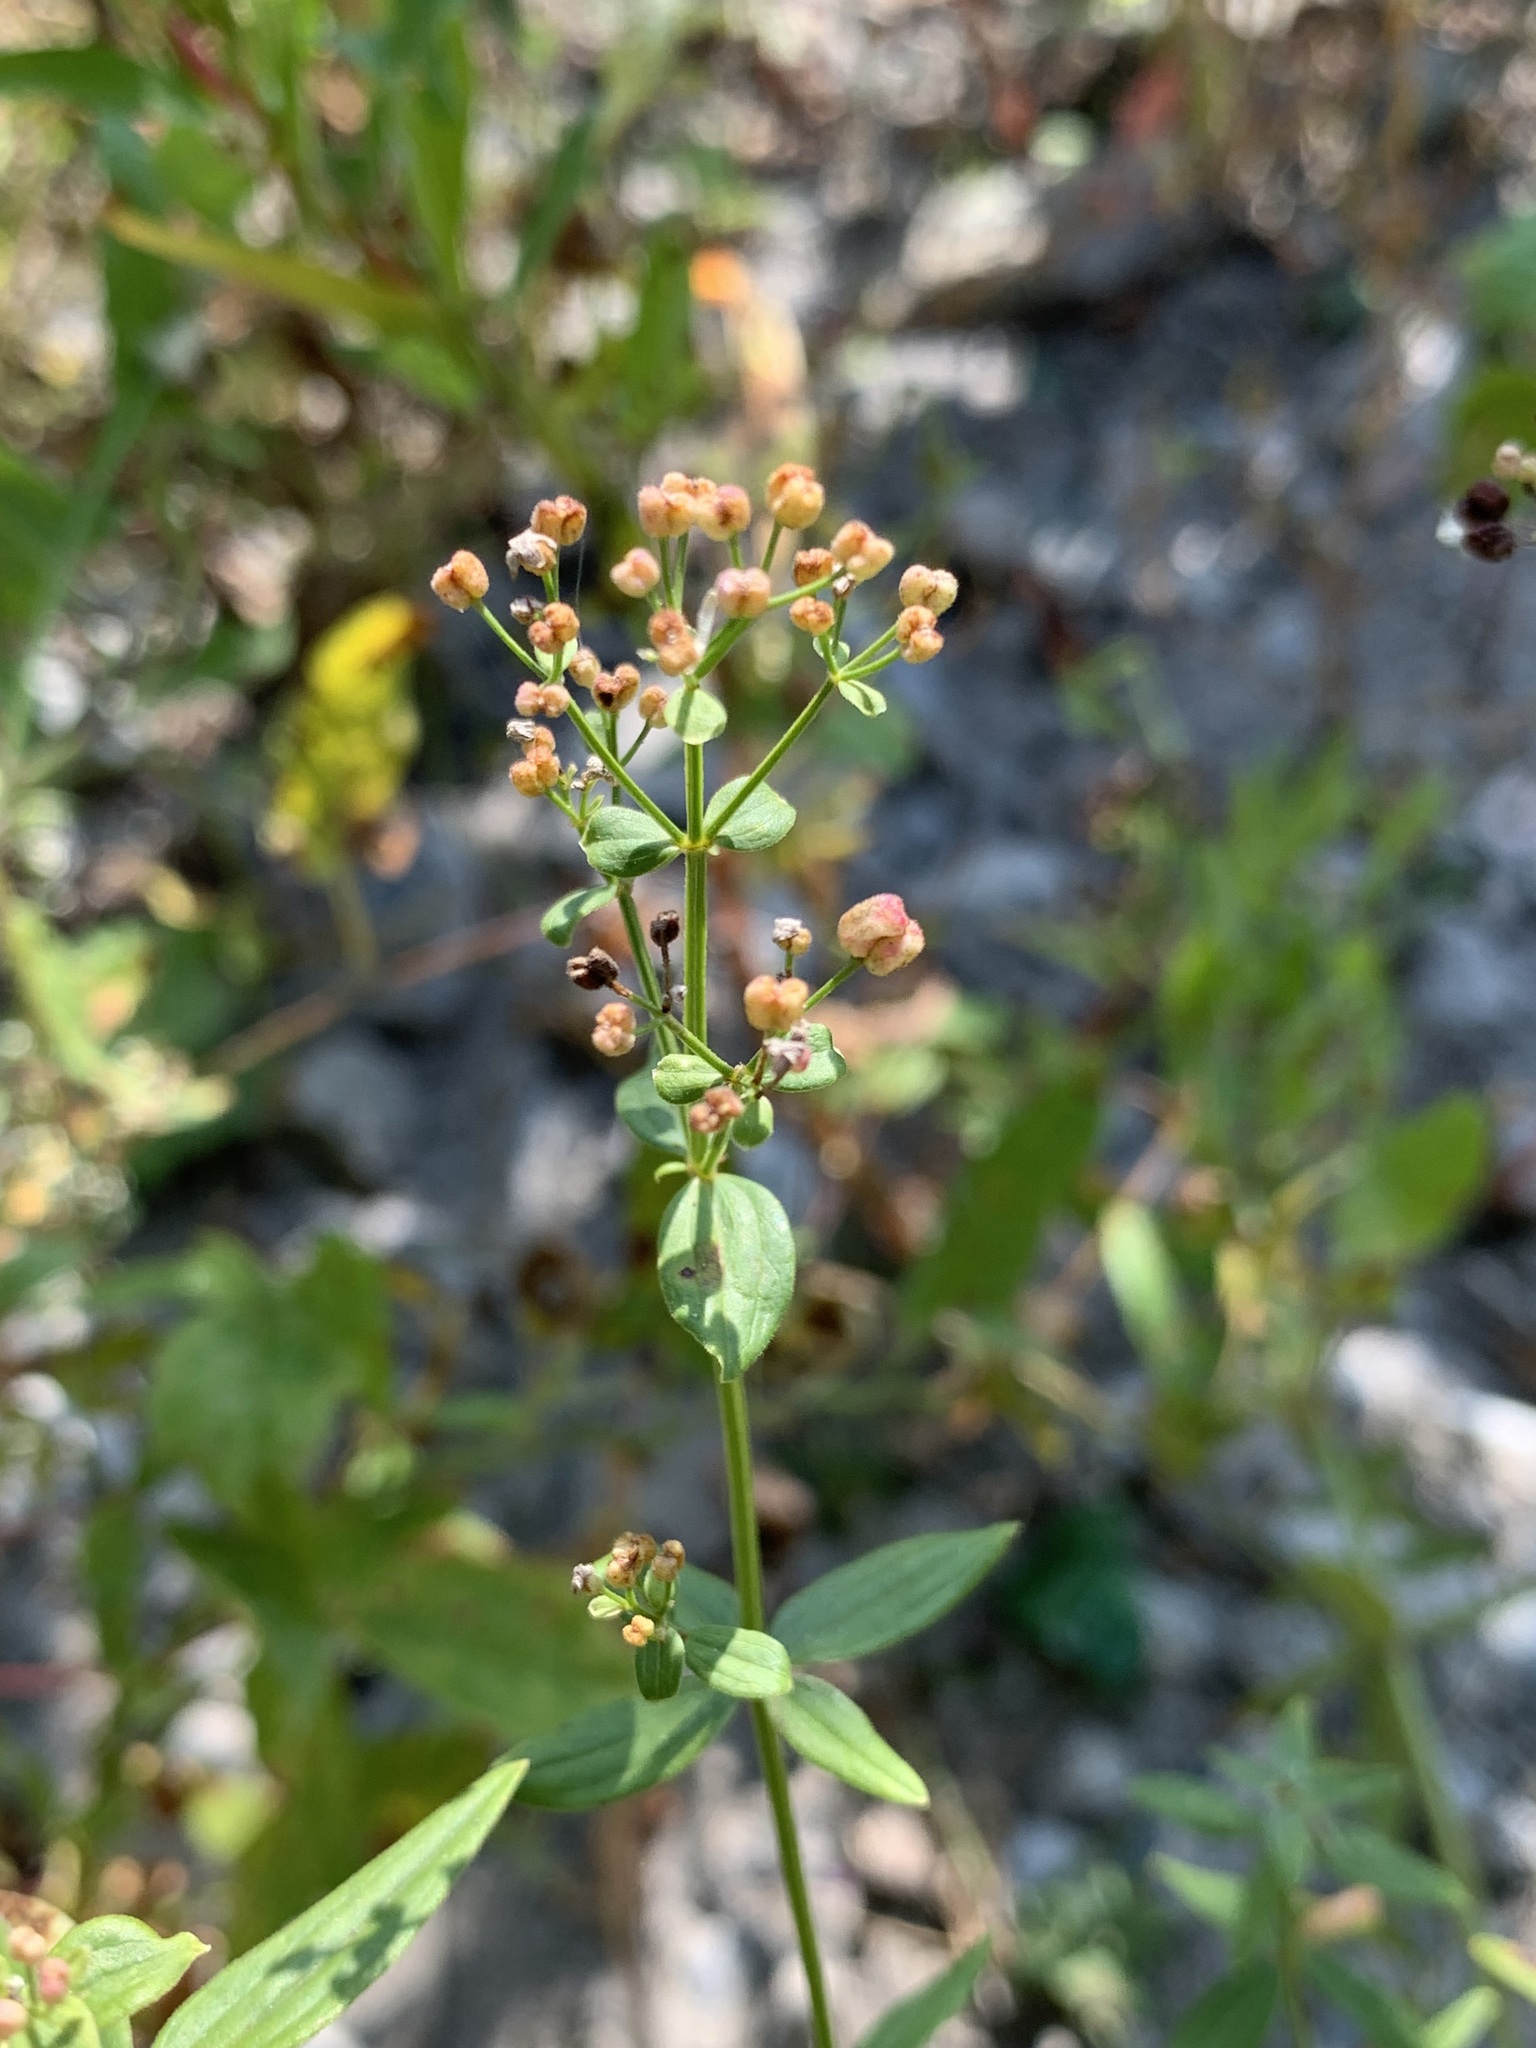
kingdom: Plantae
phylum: Tracheophyta
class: Magnoliopsida
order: Gentianales
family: Rubiaceae
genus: Galium
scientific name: Galium rubioides
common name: European bedstraw
